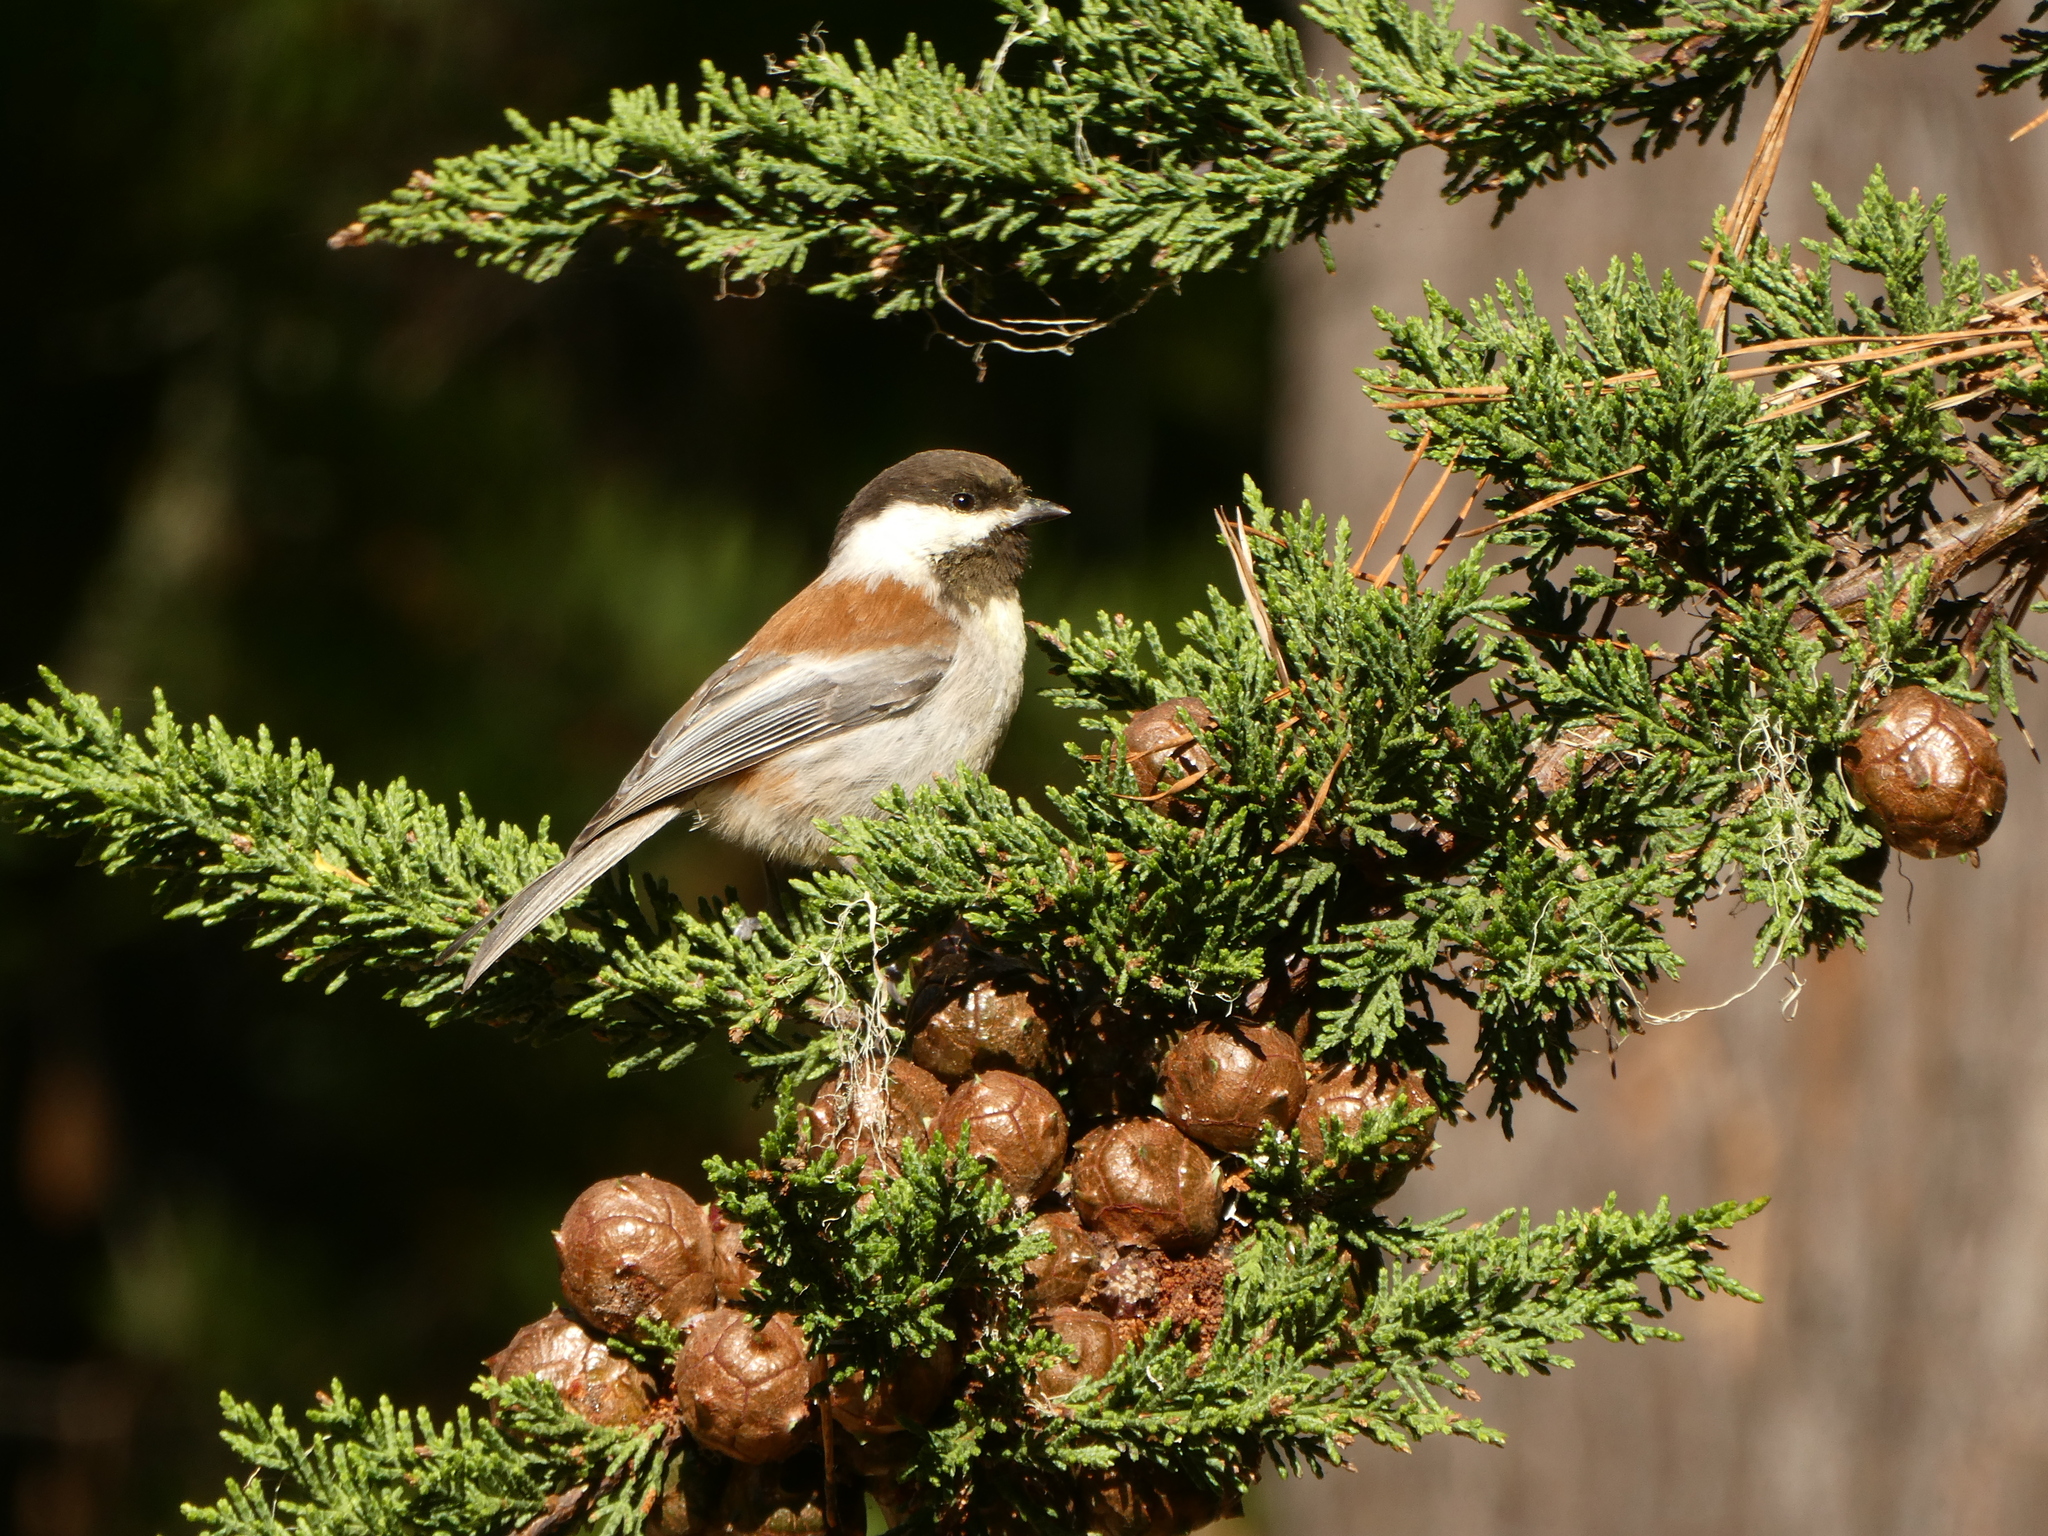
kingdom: Animalia
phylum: Chordata
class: Aves
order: Passeriformes
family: Paridae
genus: Poecile
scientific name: Poecile rufescens
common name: Chestnut-backed chickadee
